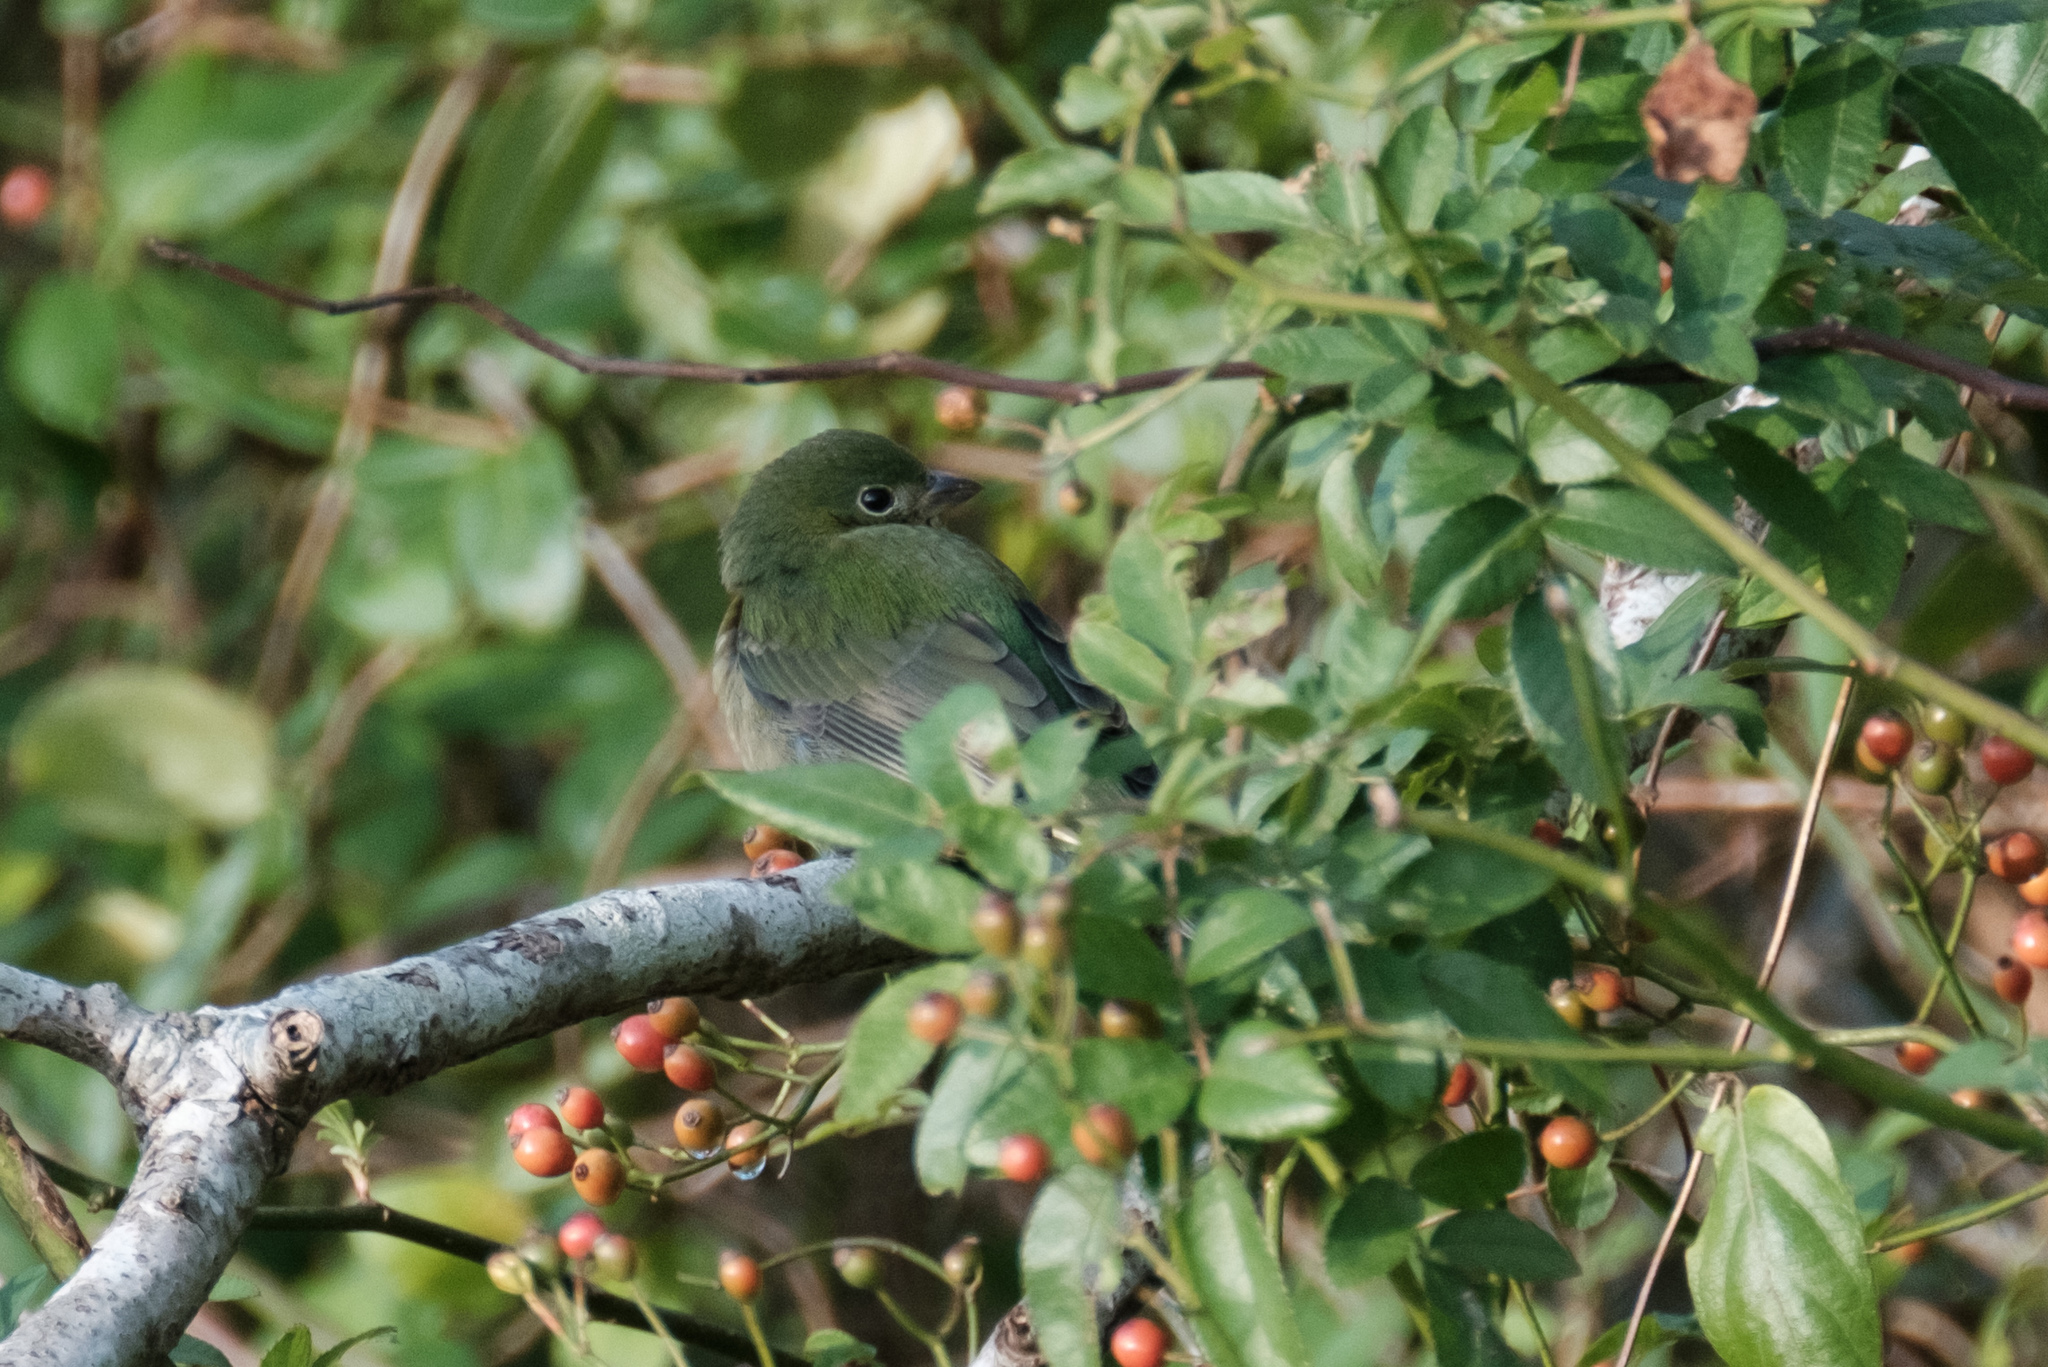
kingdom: Animalia
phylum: Chordata
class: Aves
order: Passeriformes
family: Cardinalidae
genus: Passerina
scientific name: Passerina ciris
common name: Painted bunting
